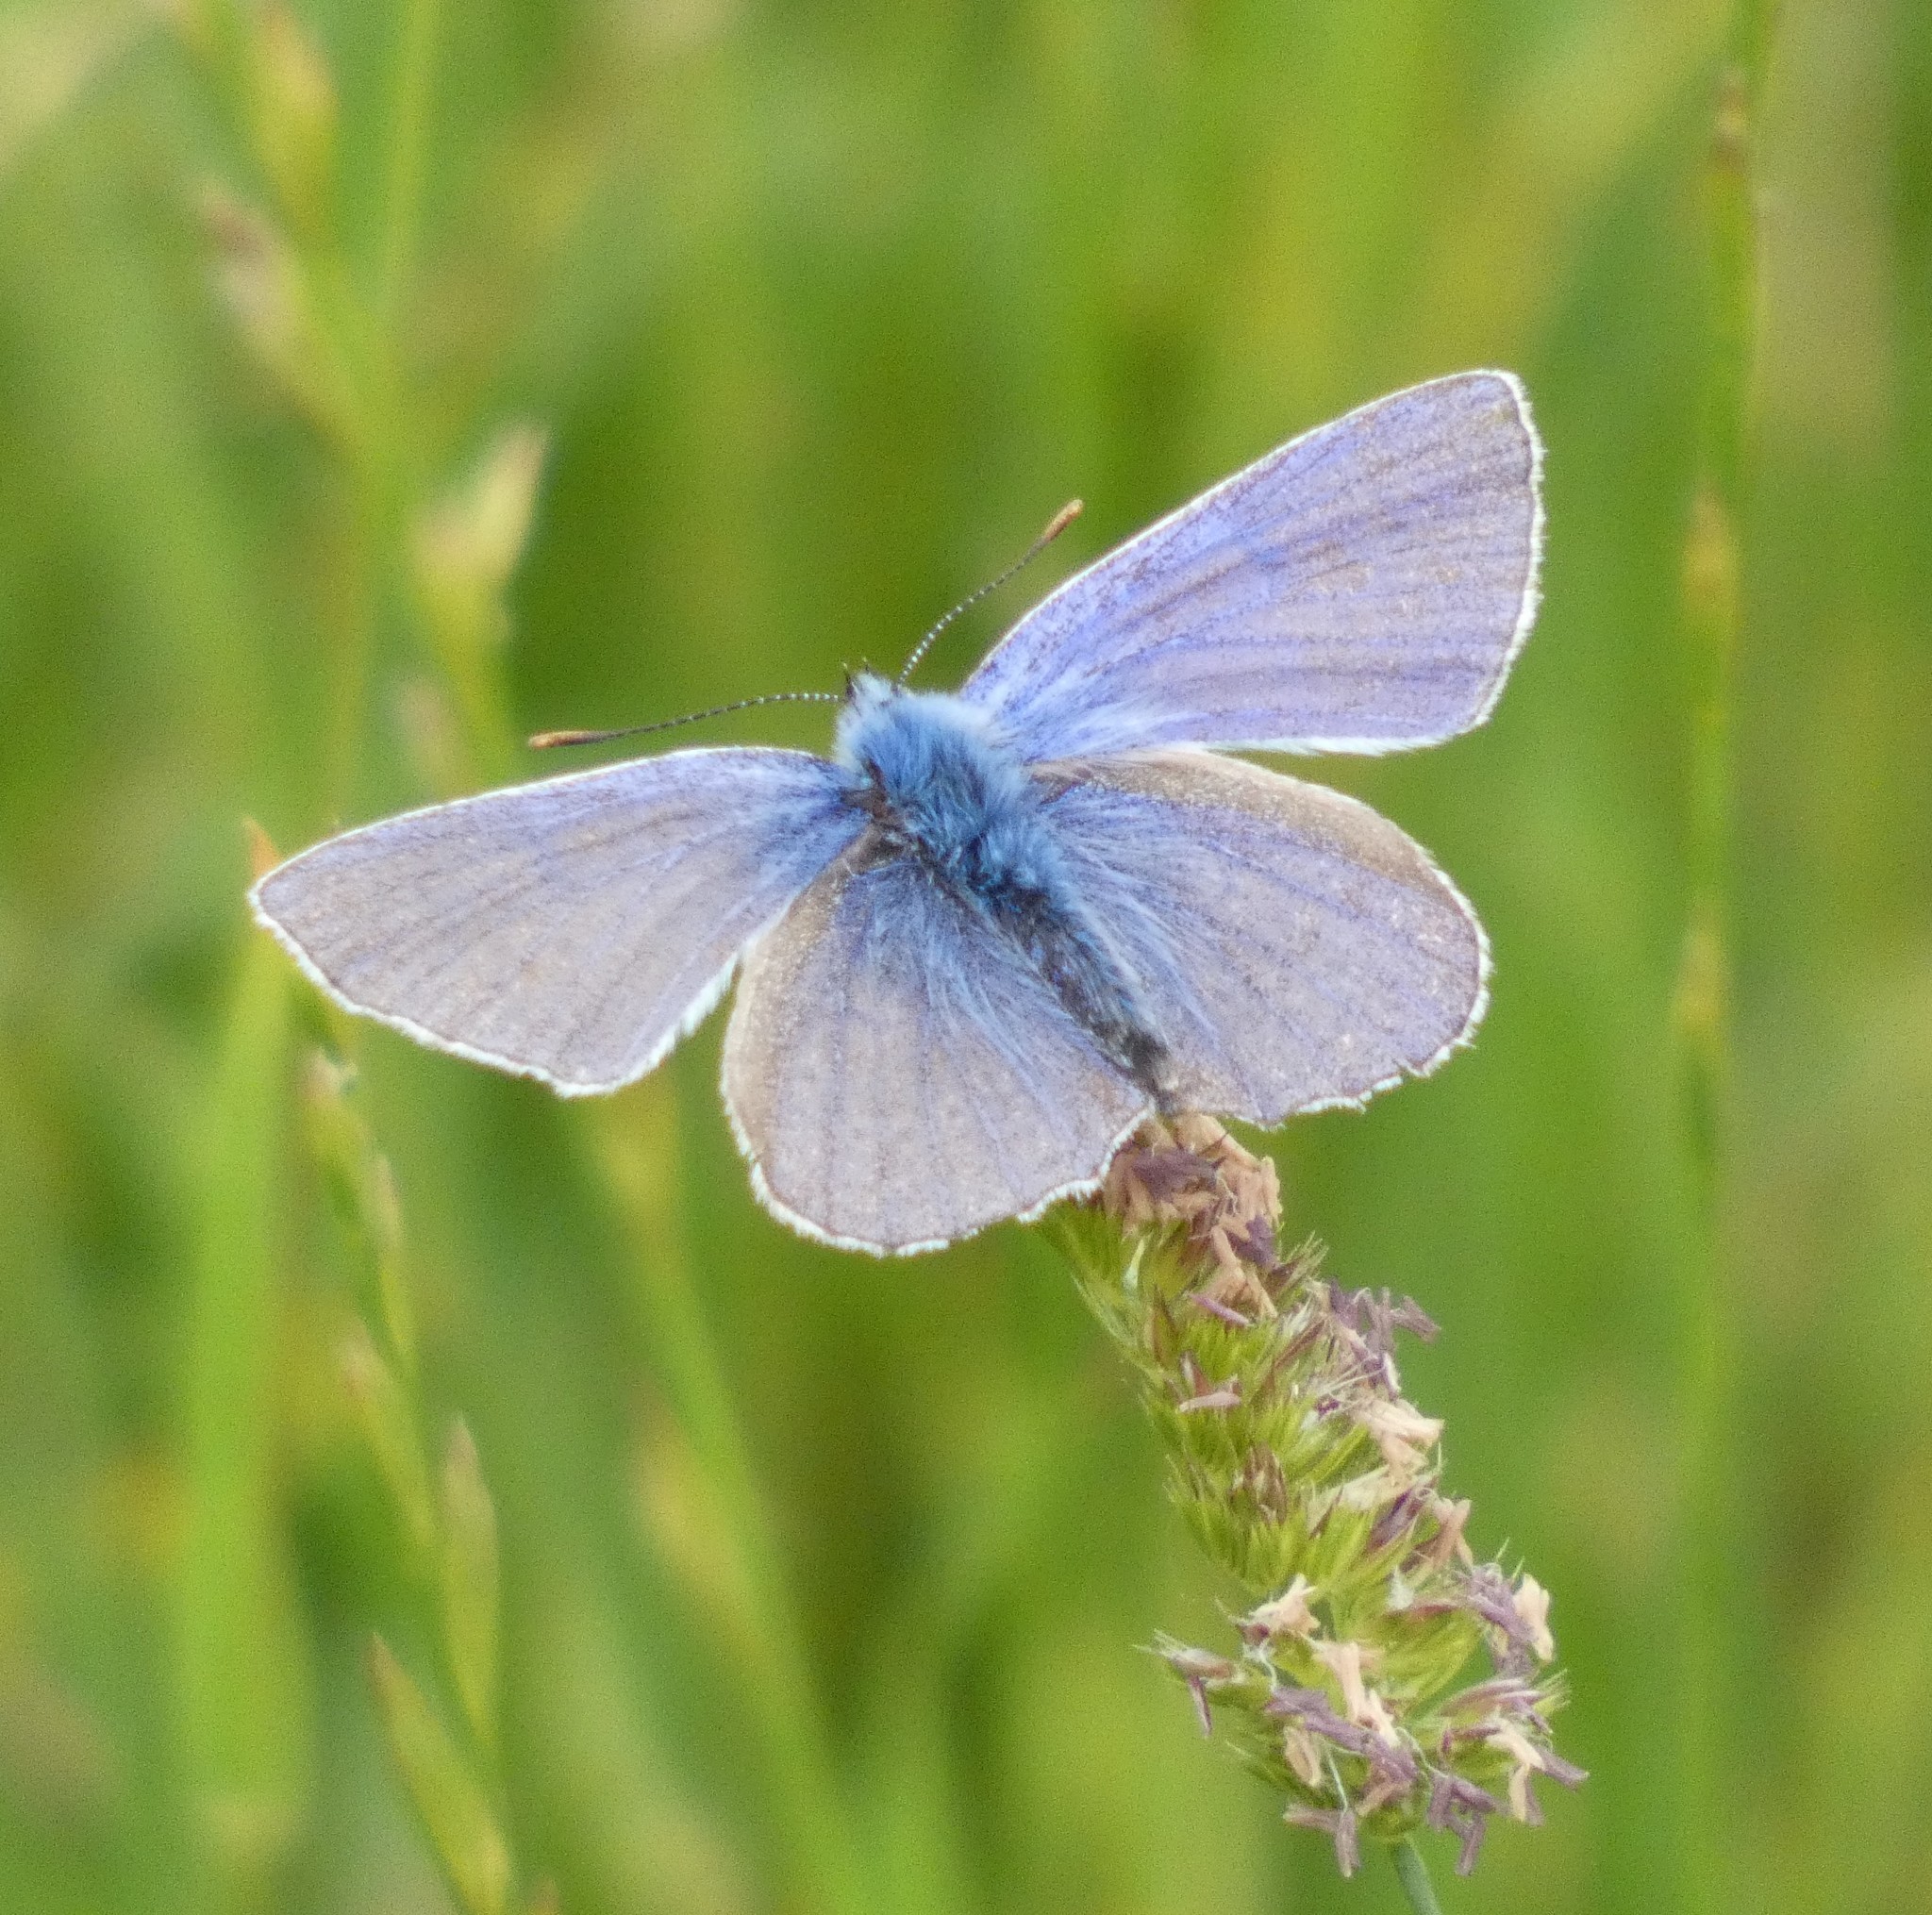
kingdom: Animalia
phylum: Arthropoda
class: Insecta
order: Lepidoptera
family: Lycaenidae
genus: Polyommatus
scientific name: Polyommatus icarus
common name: Common blue
